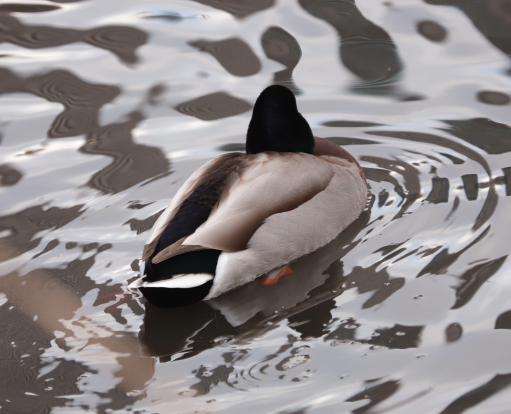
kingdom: Animalia
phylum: Chordata
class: Aves
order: Anseriformes
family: Anatidae
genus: Anas
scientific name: Anas platyrhynchos
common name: Mallard
